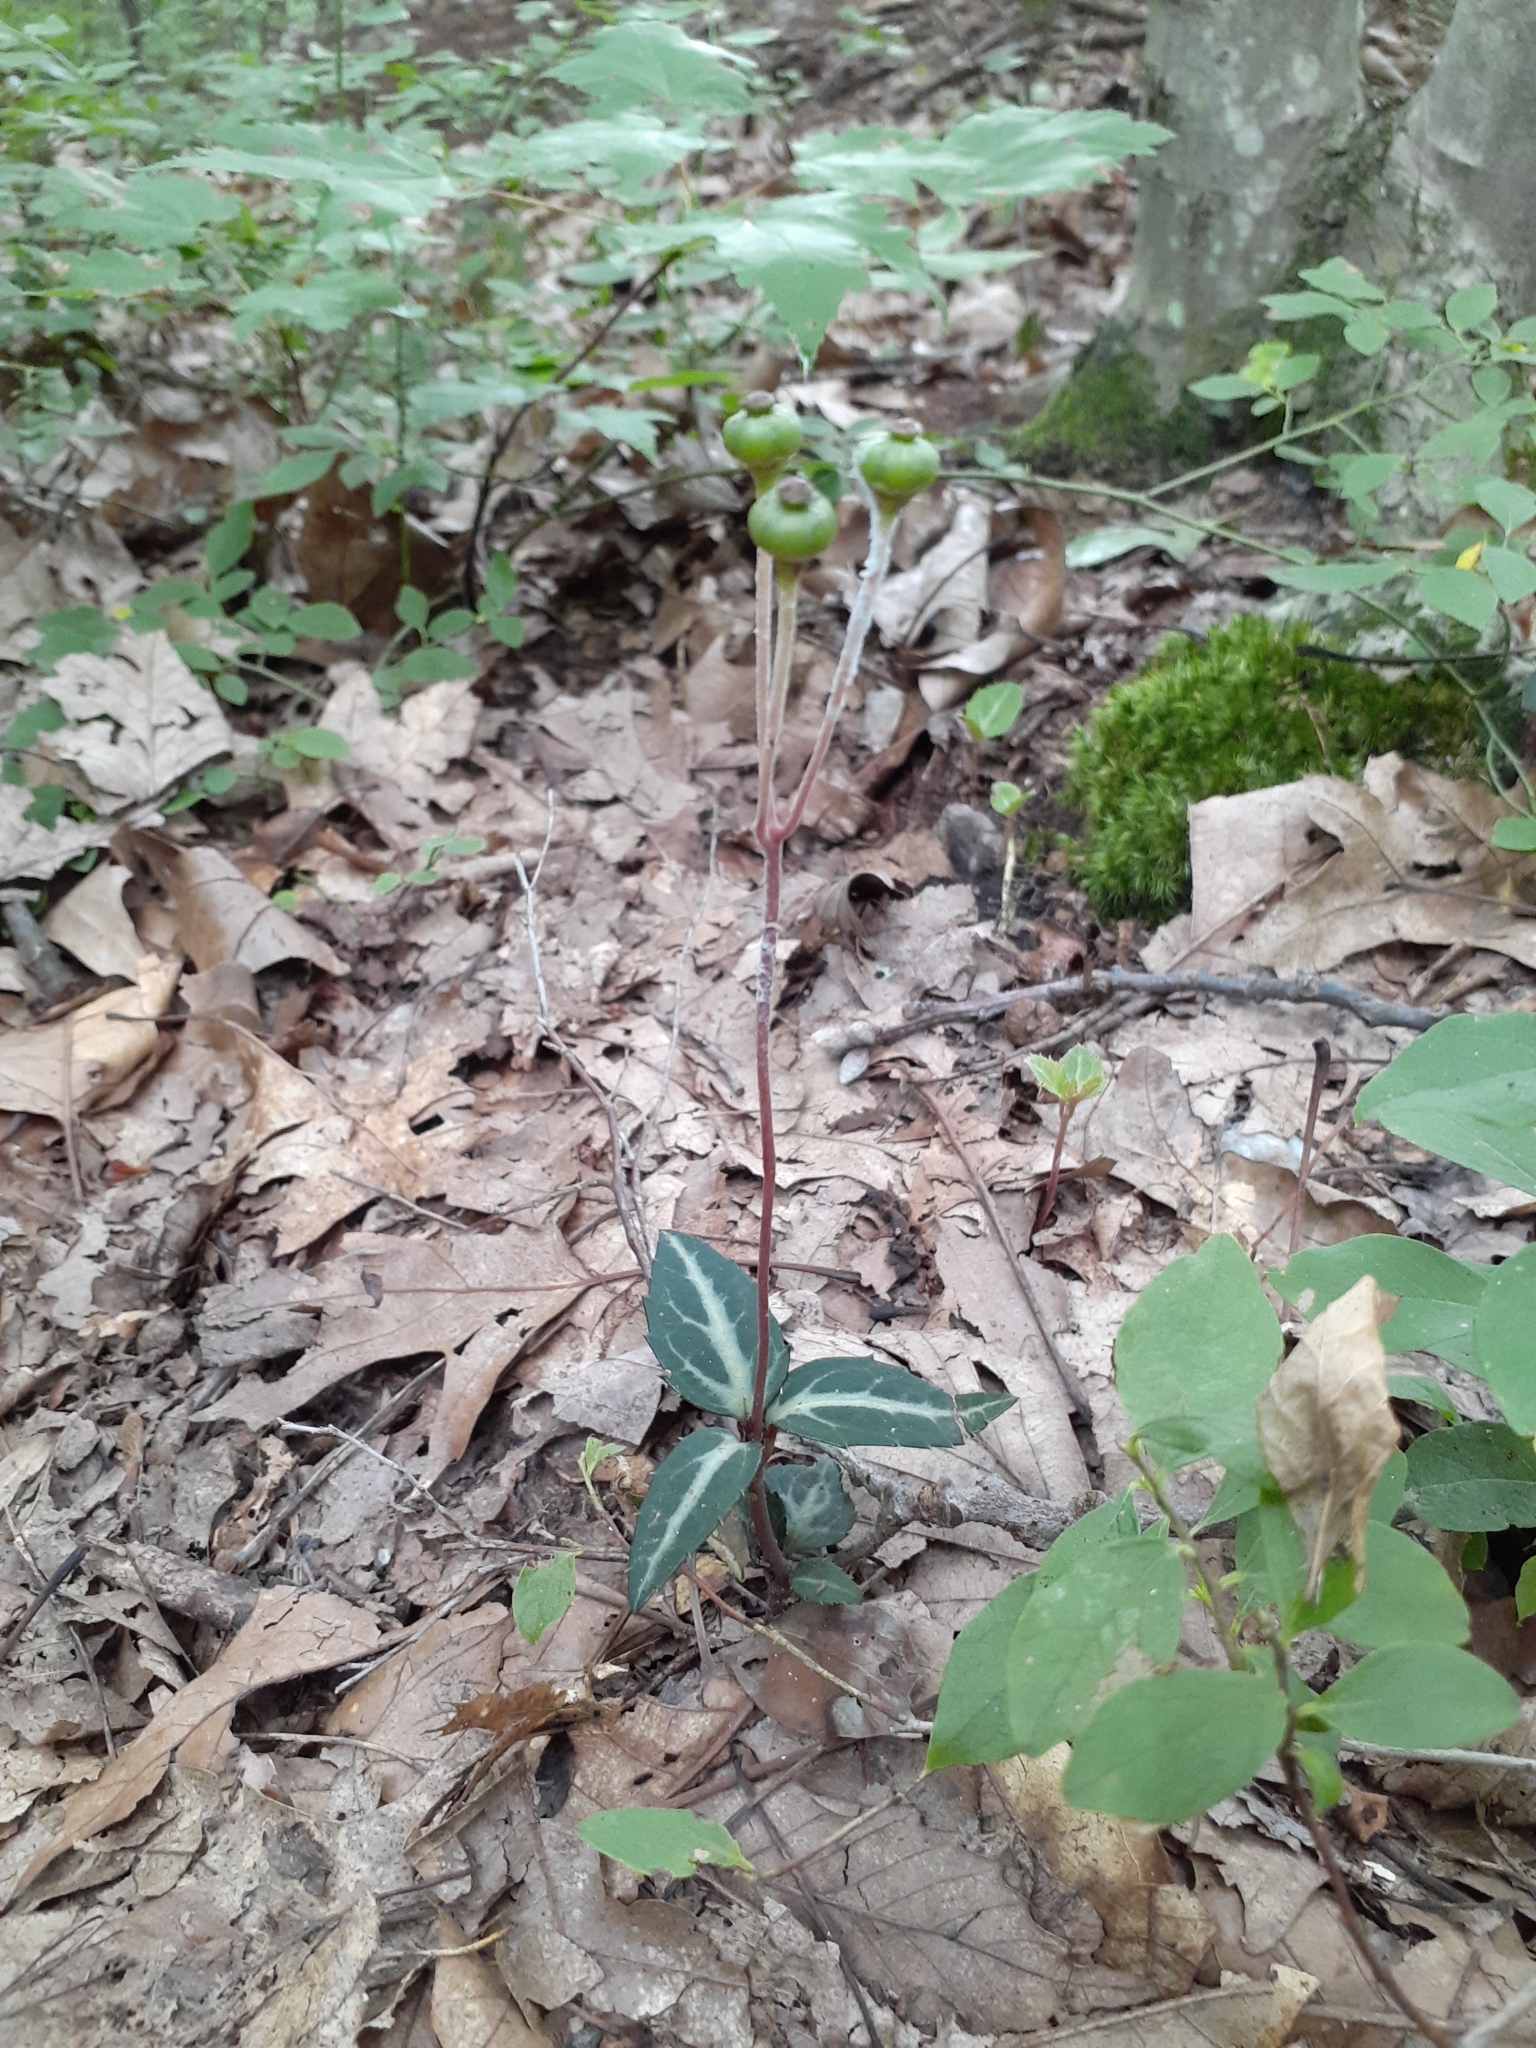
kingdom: Plantae
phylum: Tracheophyta
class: Magnoliopsida
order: Ericales
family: Ericaceae
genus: Chimaphila
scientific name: Chimaphila maculata
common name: Spotted pipsissewa
